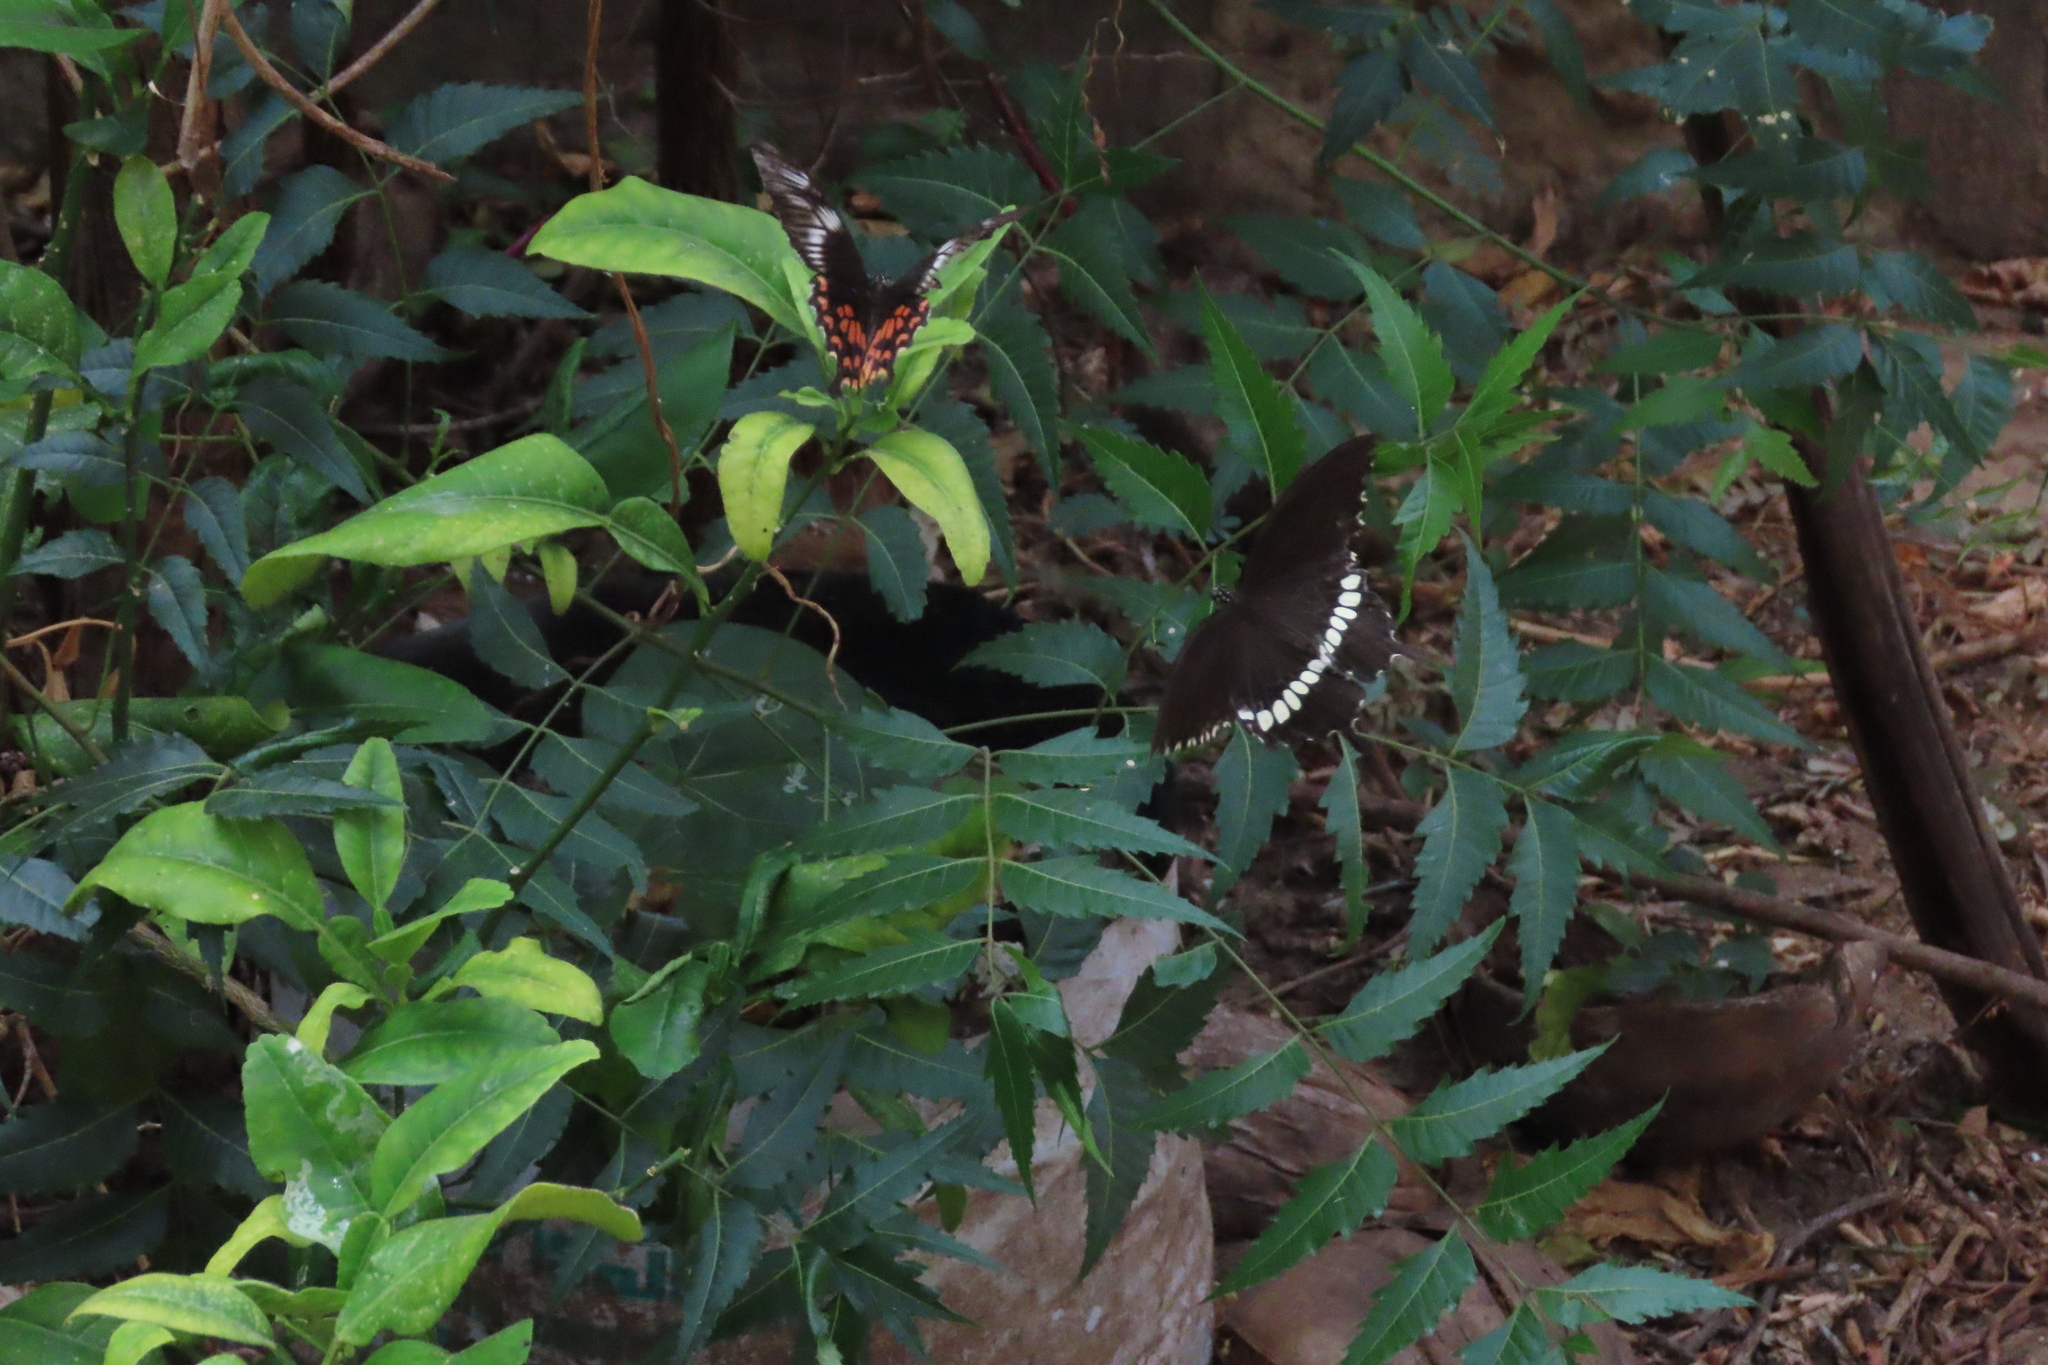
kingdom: Animalia
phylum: Arthropoda
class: Insecta
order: Lepidoptera
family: Papilionidae
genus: Papilio
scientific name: Papilio polytes
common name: Common mormon
